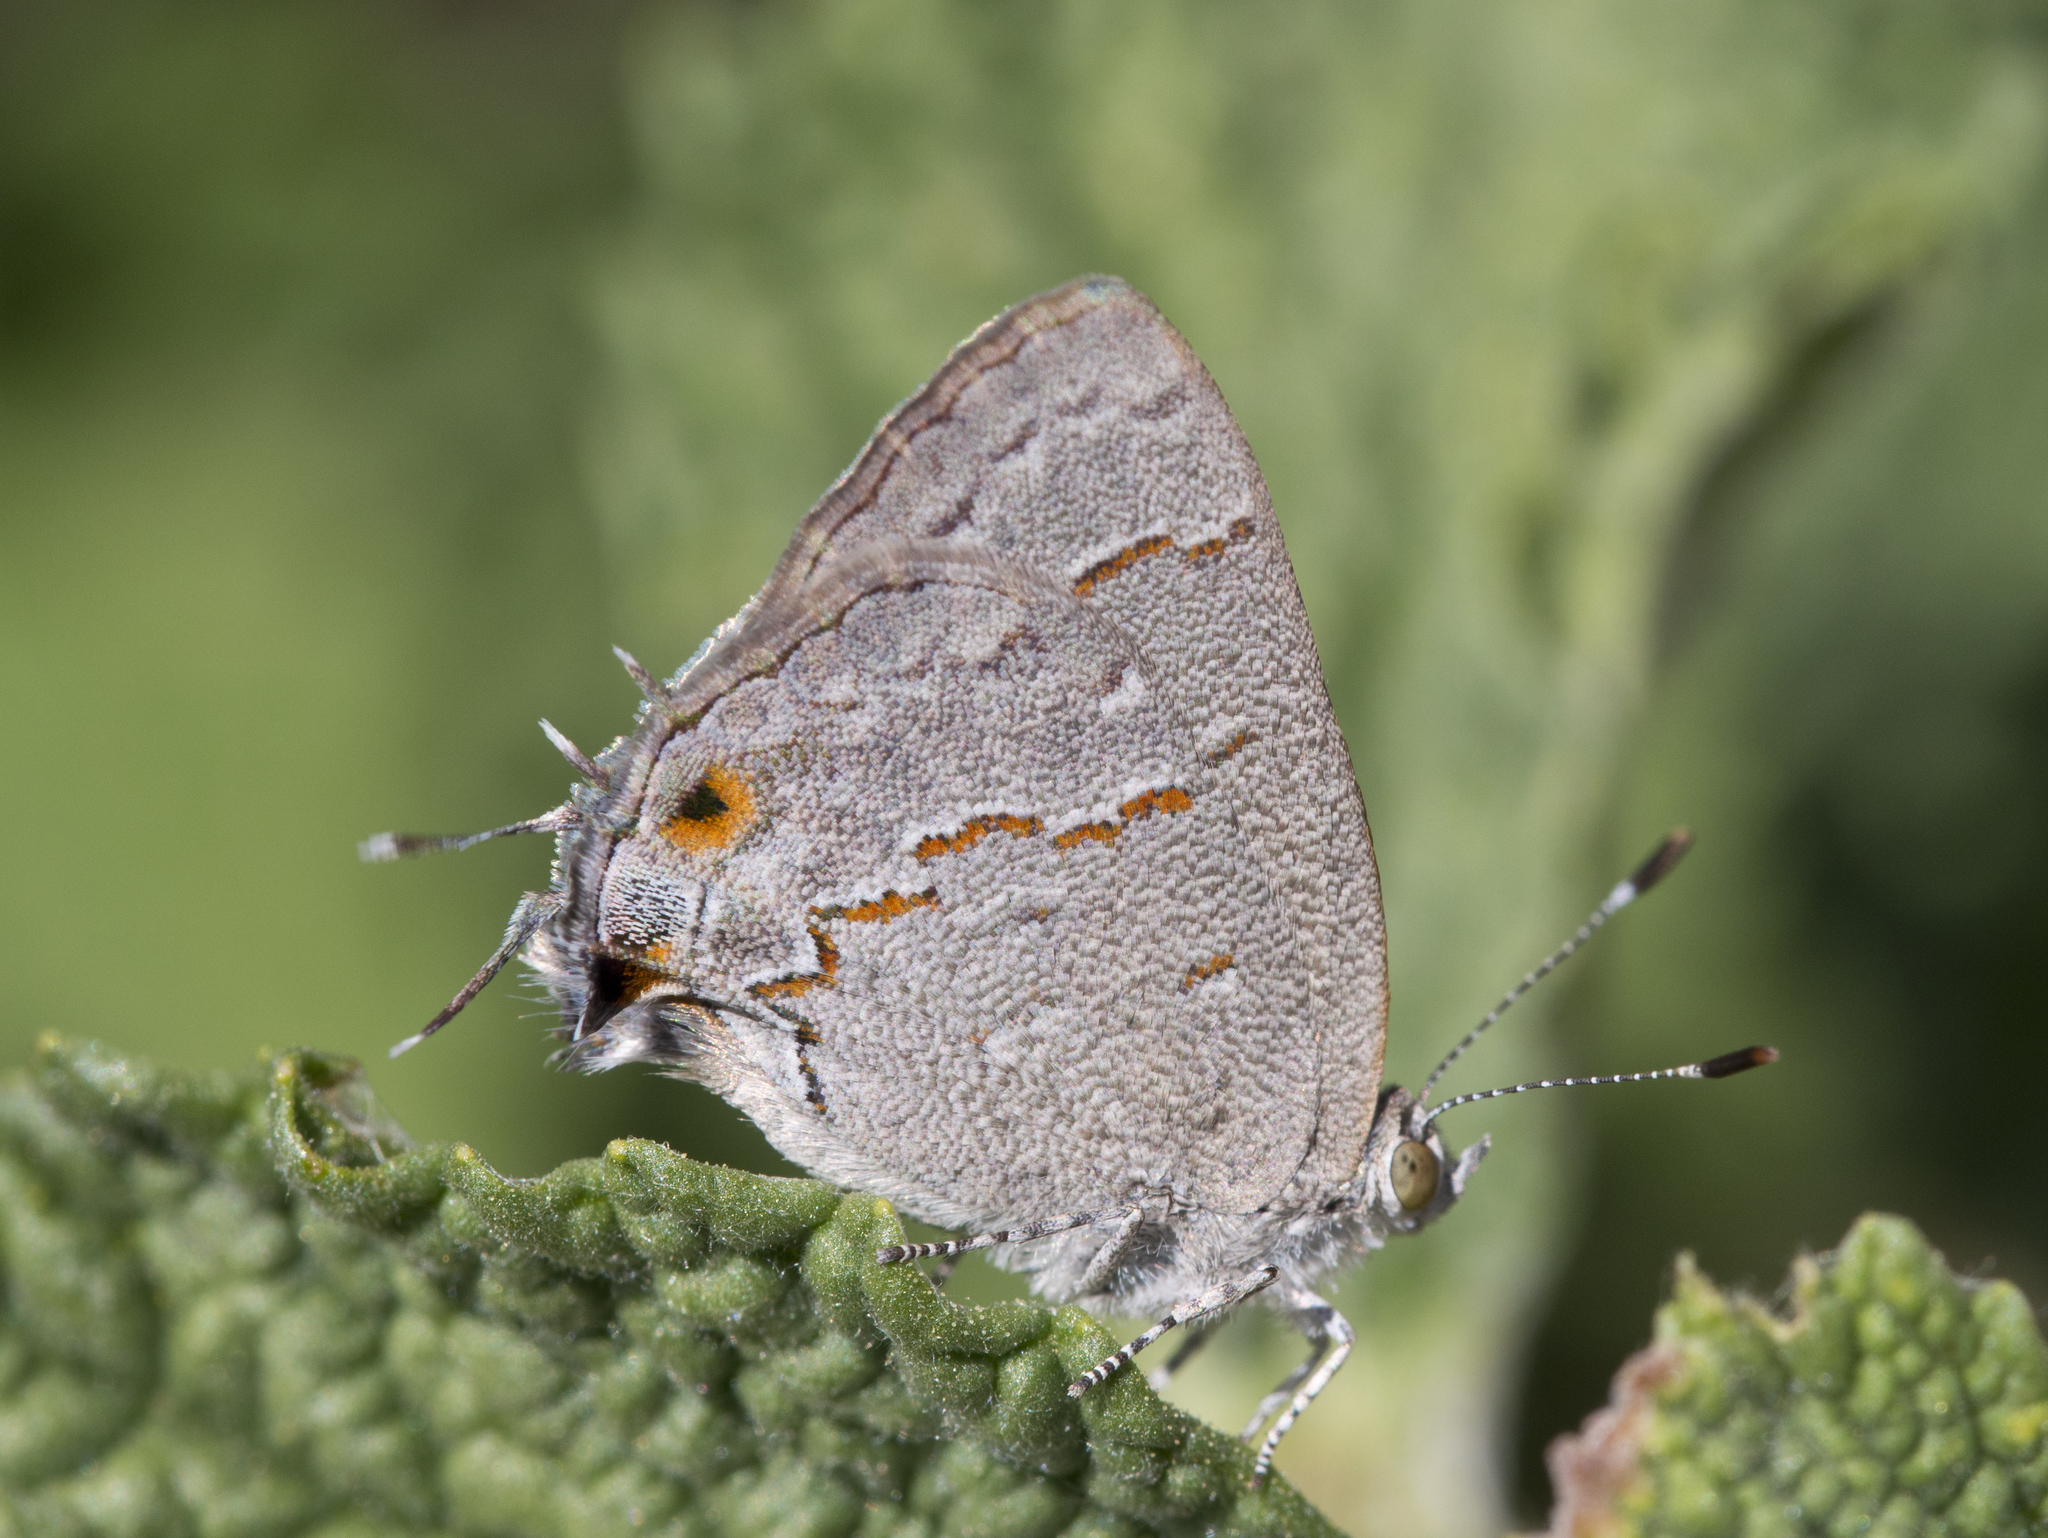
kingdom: Animalia
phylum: Arthropoda
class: Insecta
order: Lepidoptera
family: Lycaenidae
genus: Ministrymon
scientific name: Ministrymon leda
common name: Leda ministreak
